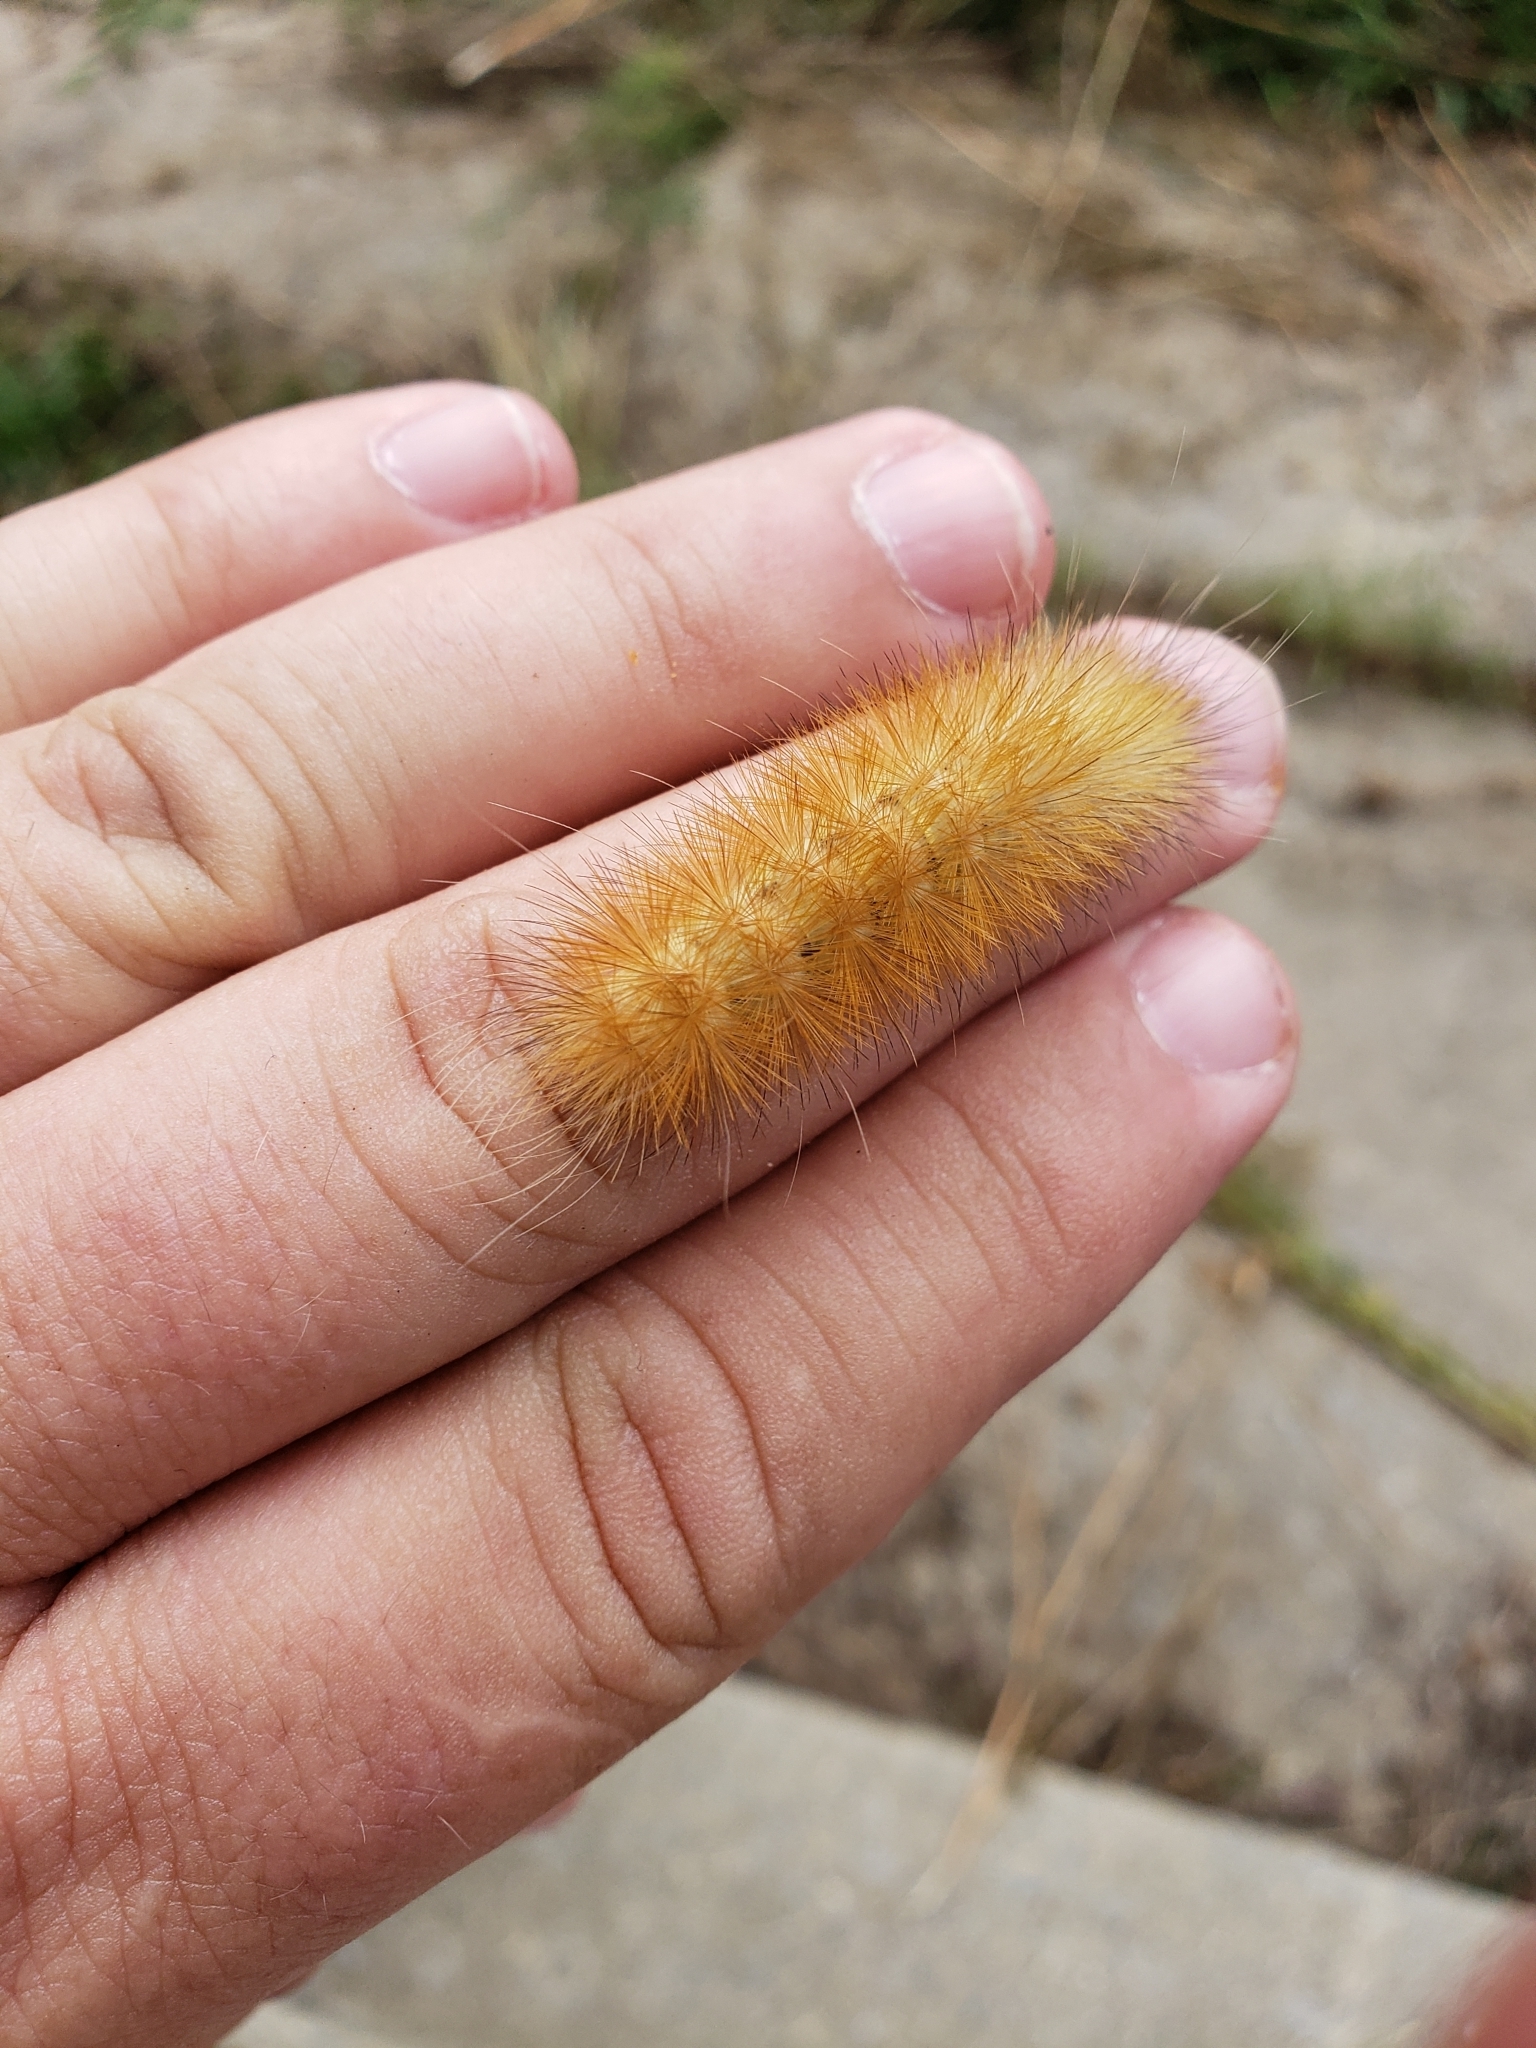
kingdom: Animalia
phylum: Arthropoda
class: Insecta
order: Lepidoptera
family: Erebidae
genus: Spilosoma
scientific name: Spilosoma virginica
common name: Virginia tiger moth
